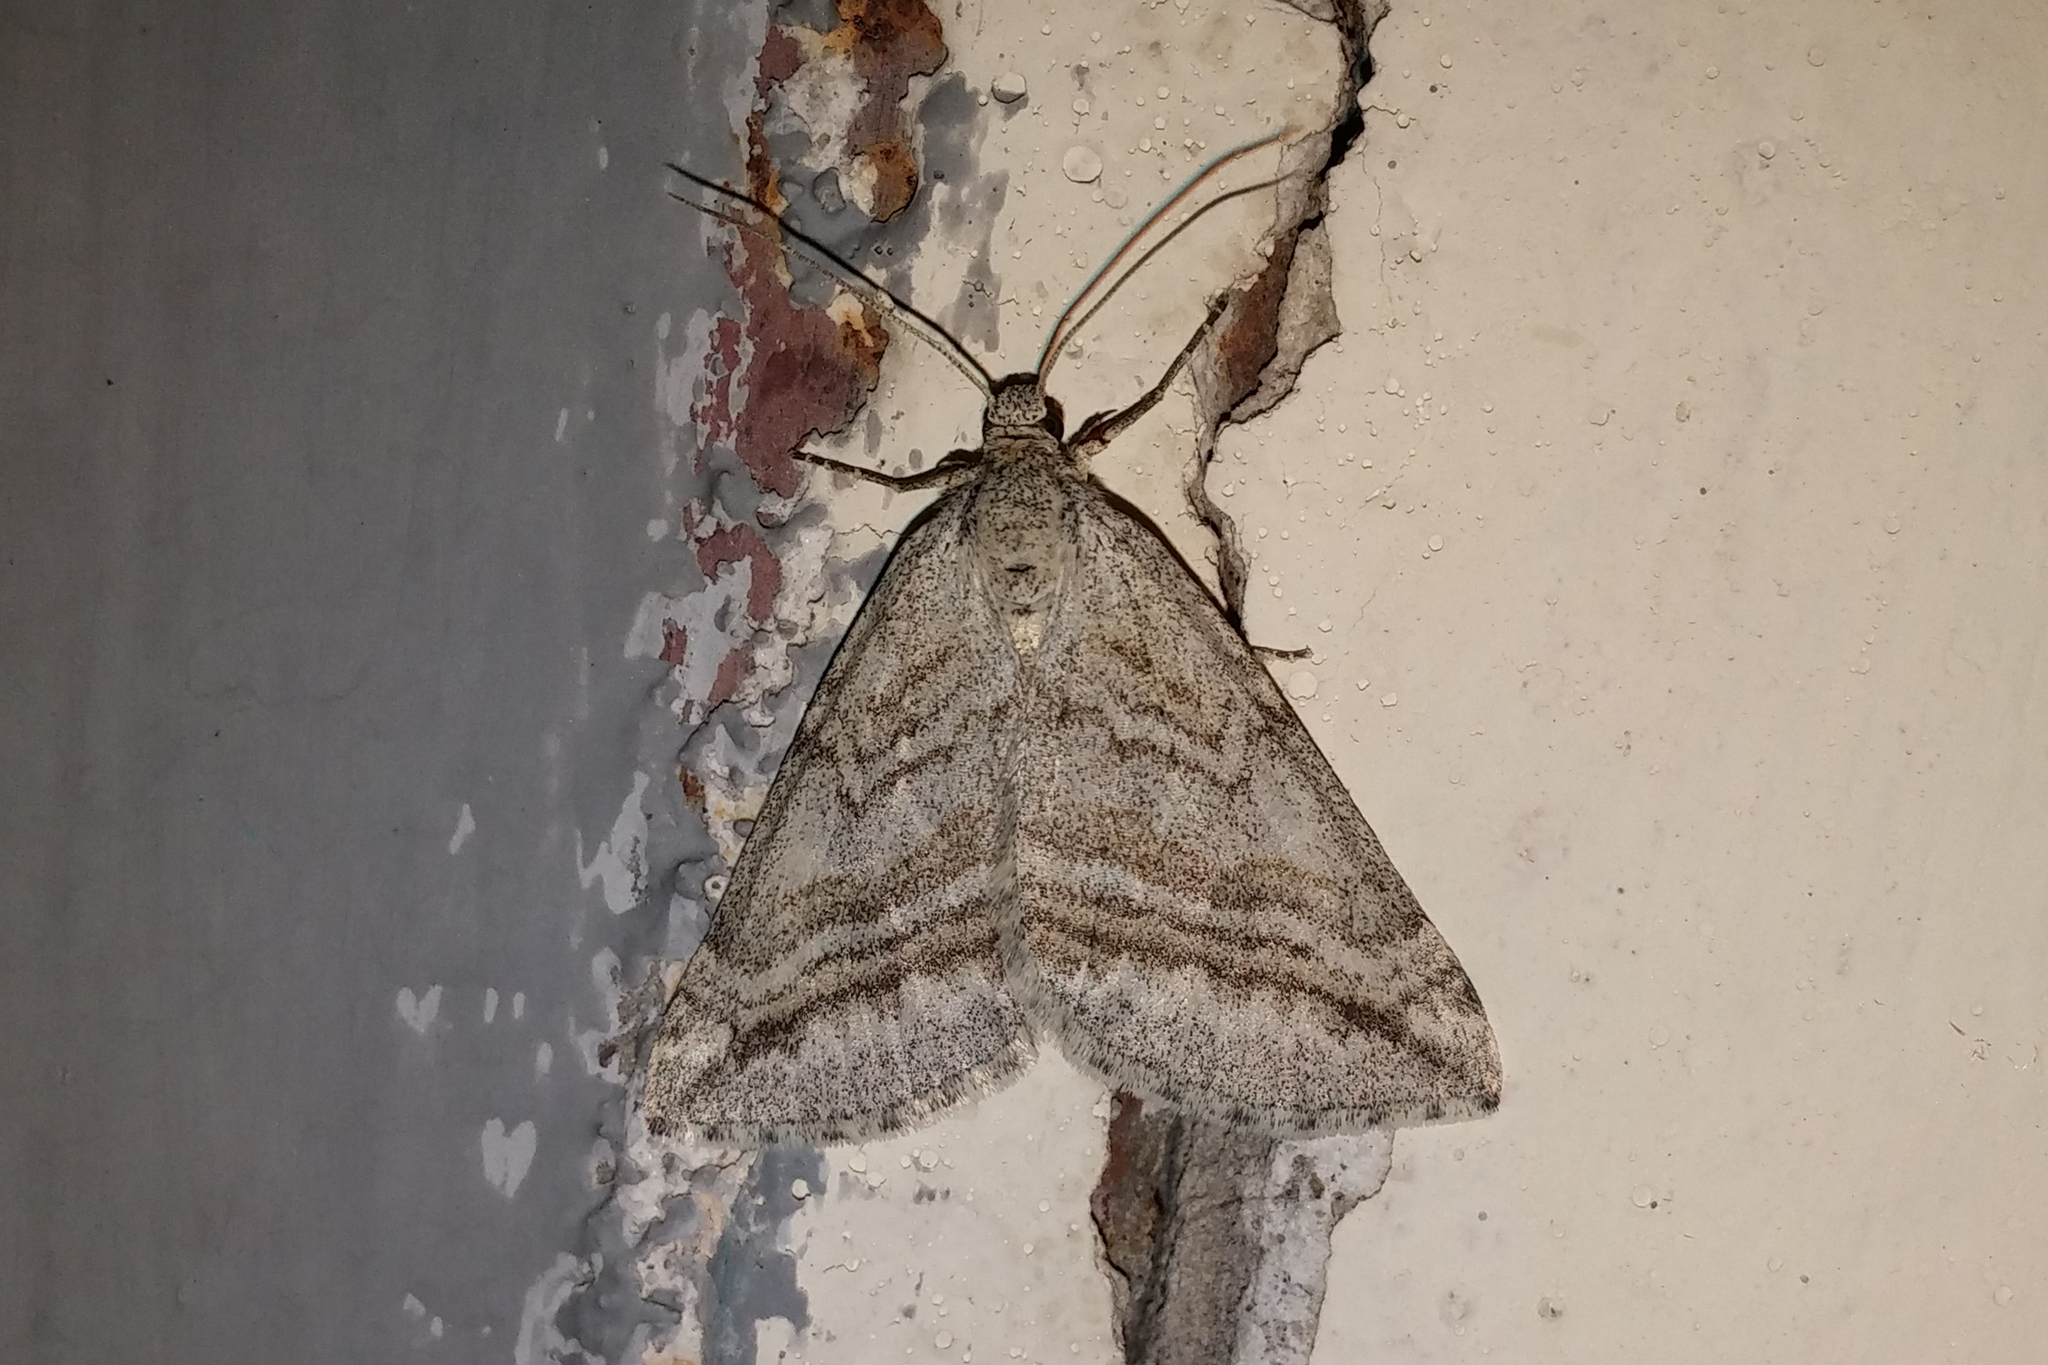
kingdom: Animalia
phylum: Arthropoda
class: Insecta
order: Lepidoptera
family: Geometridae
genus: Lithostege
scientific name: Lithostege coassata
